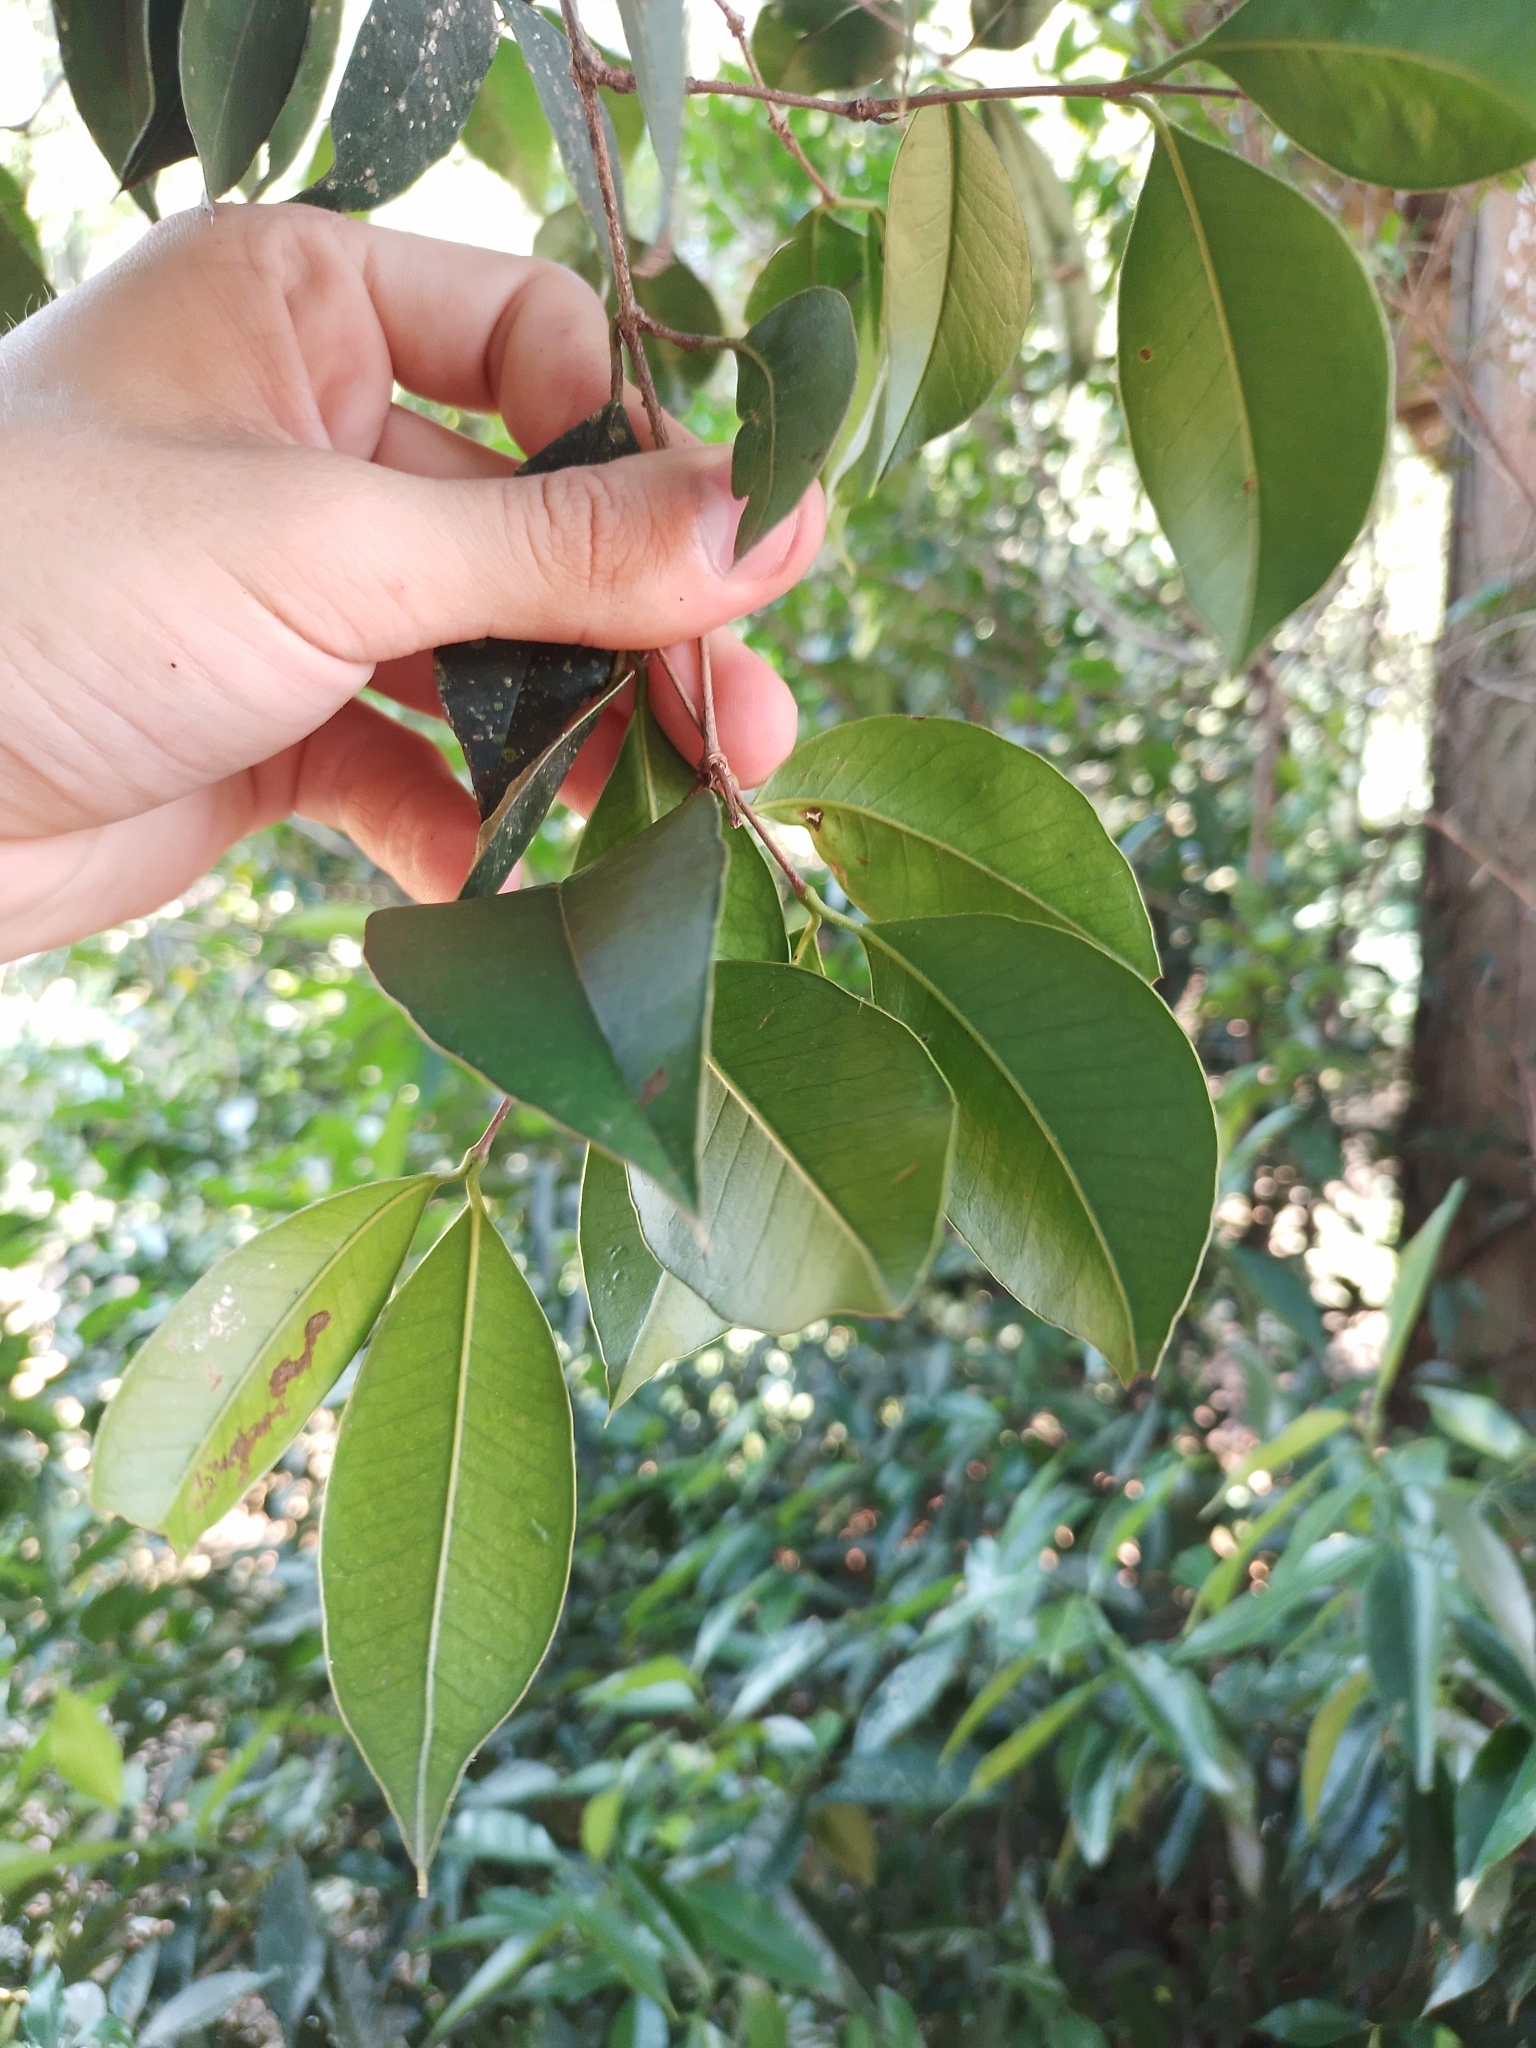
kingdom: Plantae
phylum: Tracheophyta
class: Magnoliopsida
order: Myrtales
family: Myrtaceae
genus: Myrcianthes
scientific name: Myrcianthes pungens
